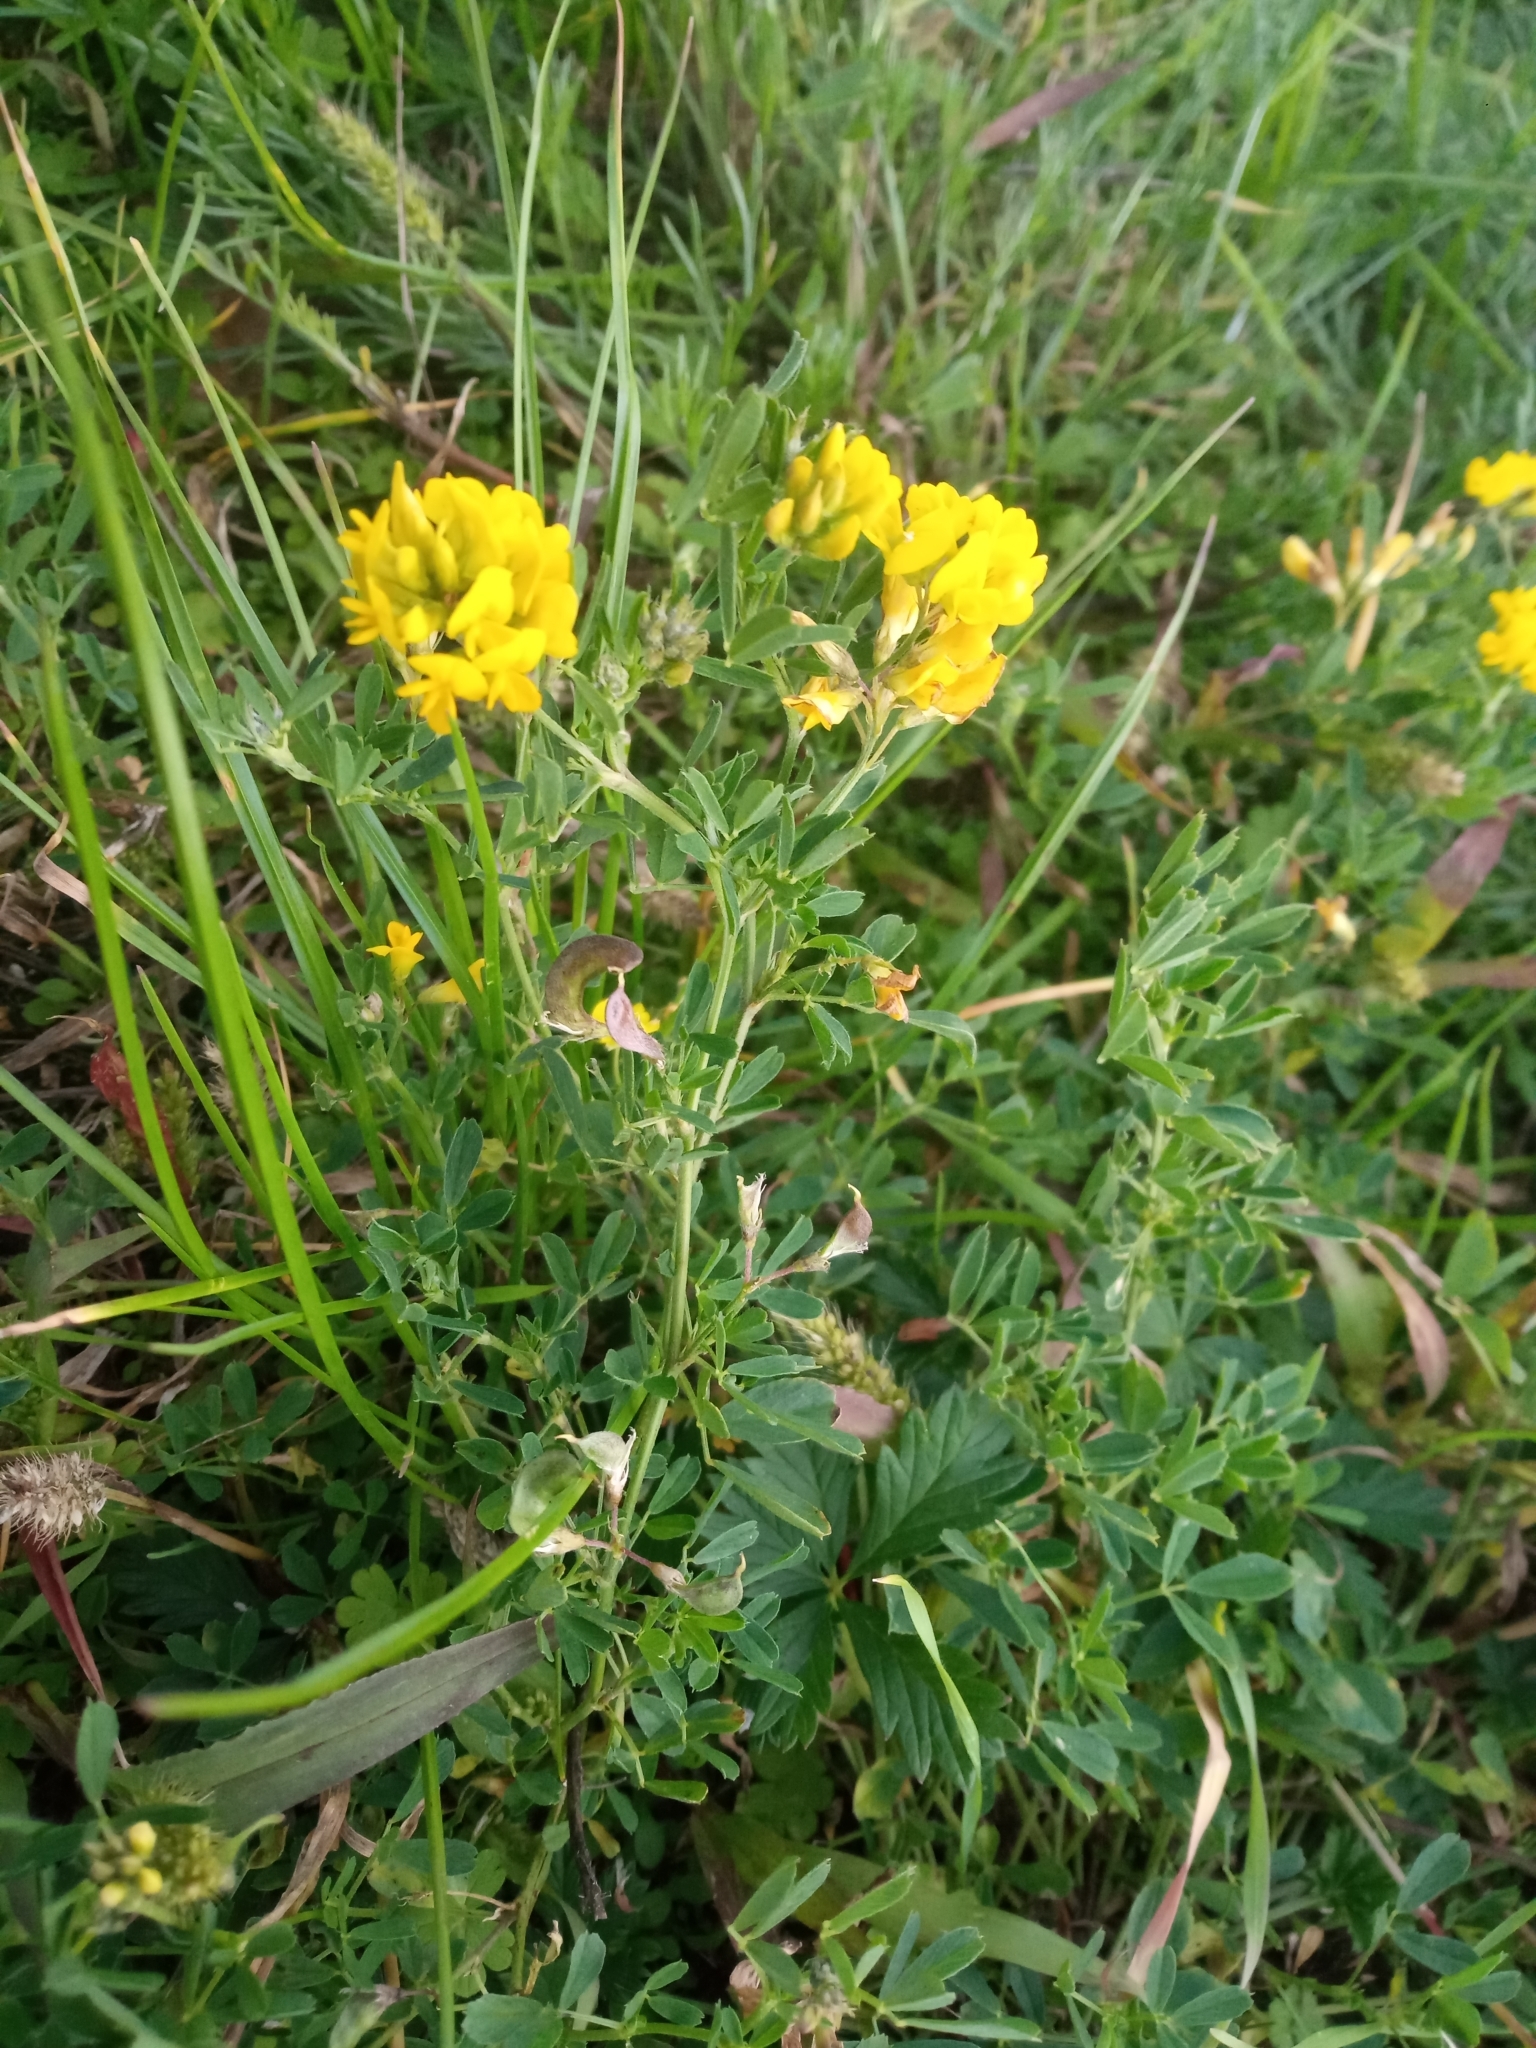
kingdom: Plantae
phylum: Tracheophyta
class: Magnoliopsida
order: Fabales
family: Fabaceae
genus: Medicago
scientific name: Medicago falcata
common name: Sickle medick
